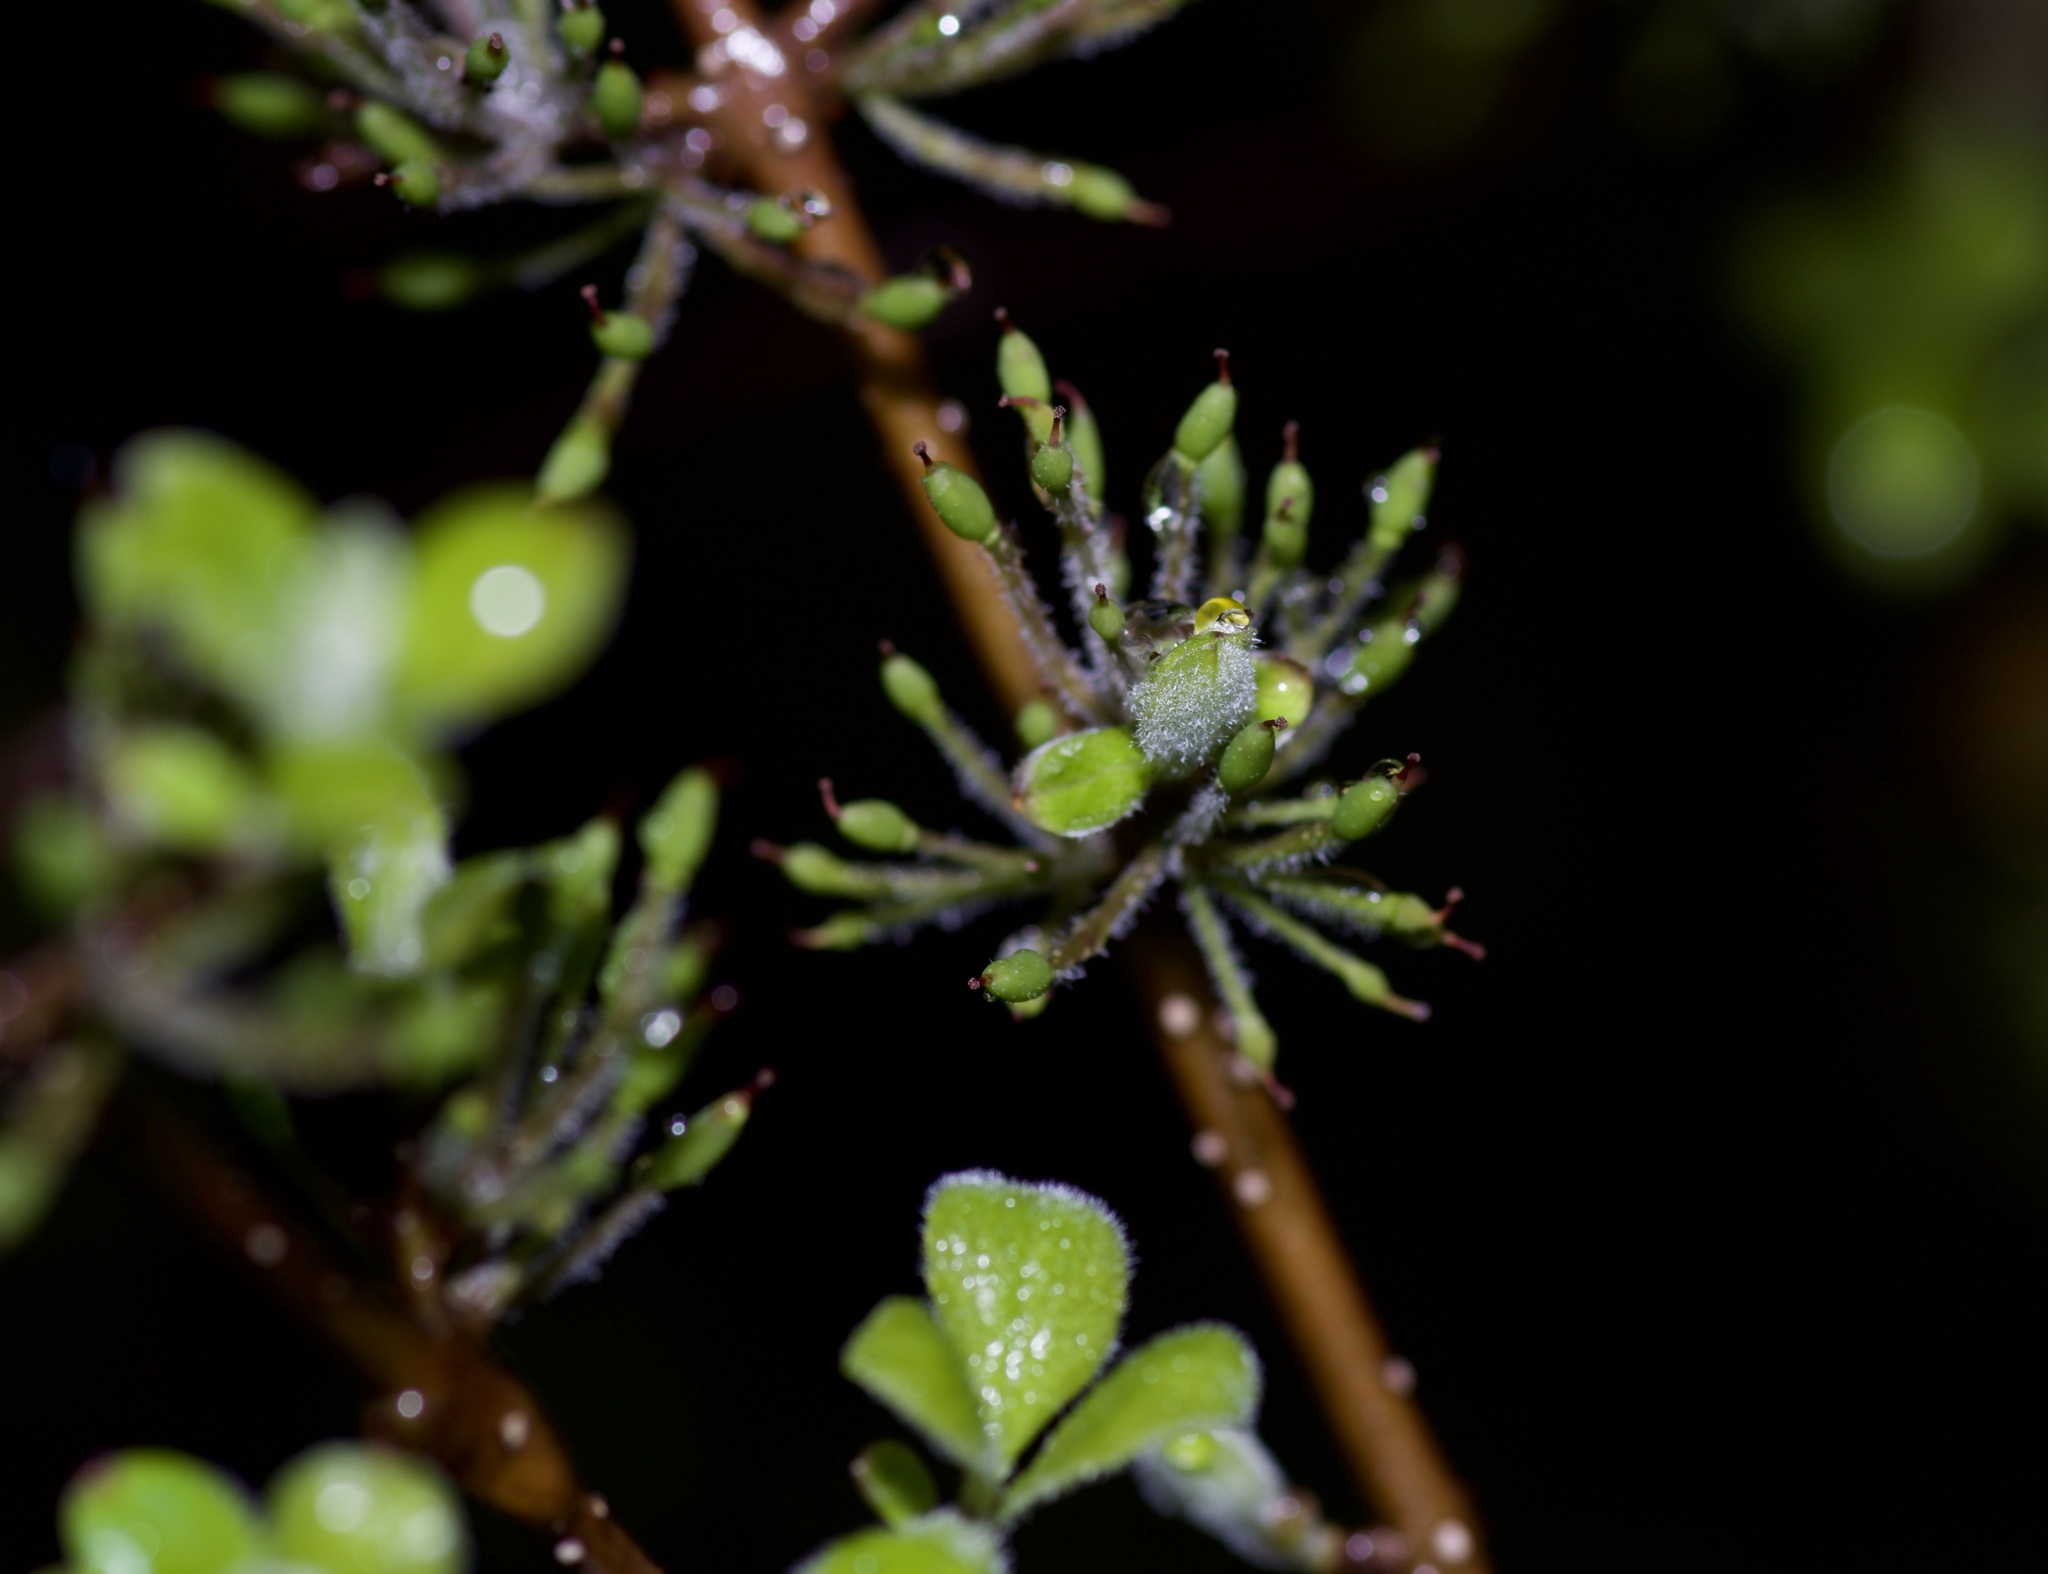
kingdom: Plantae
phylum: Tracheophyta
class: Magnoliopsida
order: Lamiales
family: Oleaceae
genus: Forestiera
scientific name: Forestiera pubescens
